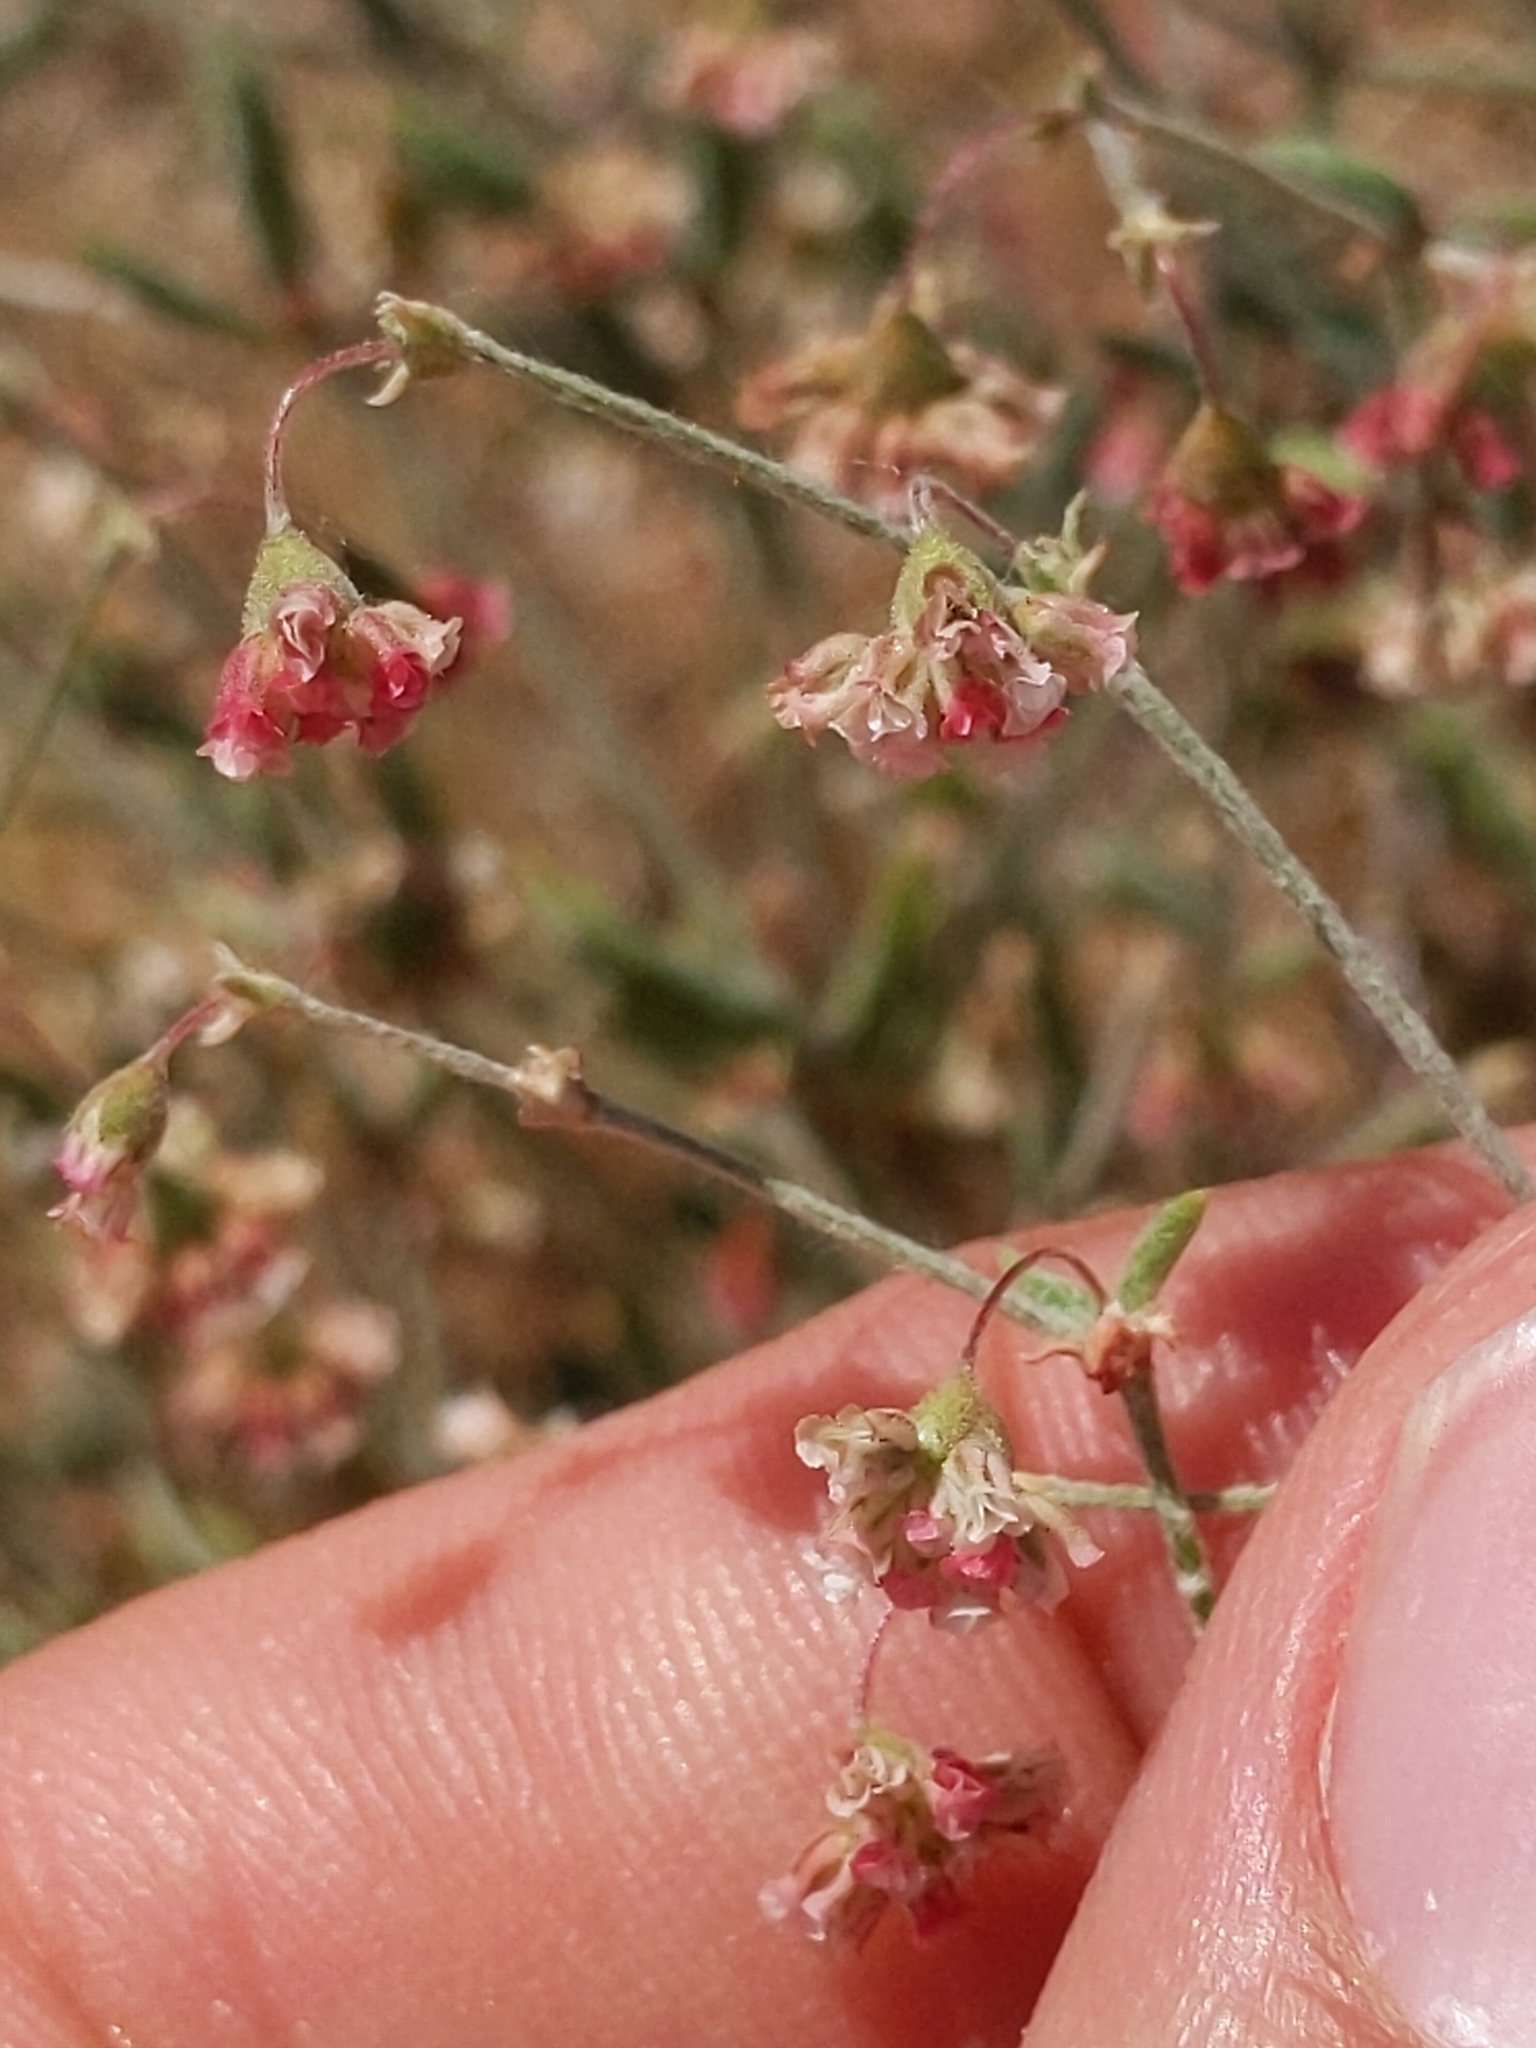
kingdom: Plantae
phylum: Tracheophyta
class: Magnoliopsida
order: Caryophyllales
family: Polygonaceae
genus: Eriogonum
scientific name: Eriogonum gracillimum
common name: Rose-and-white wild buckwheat
